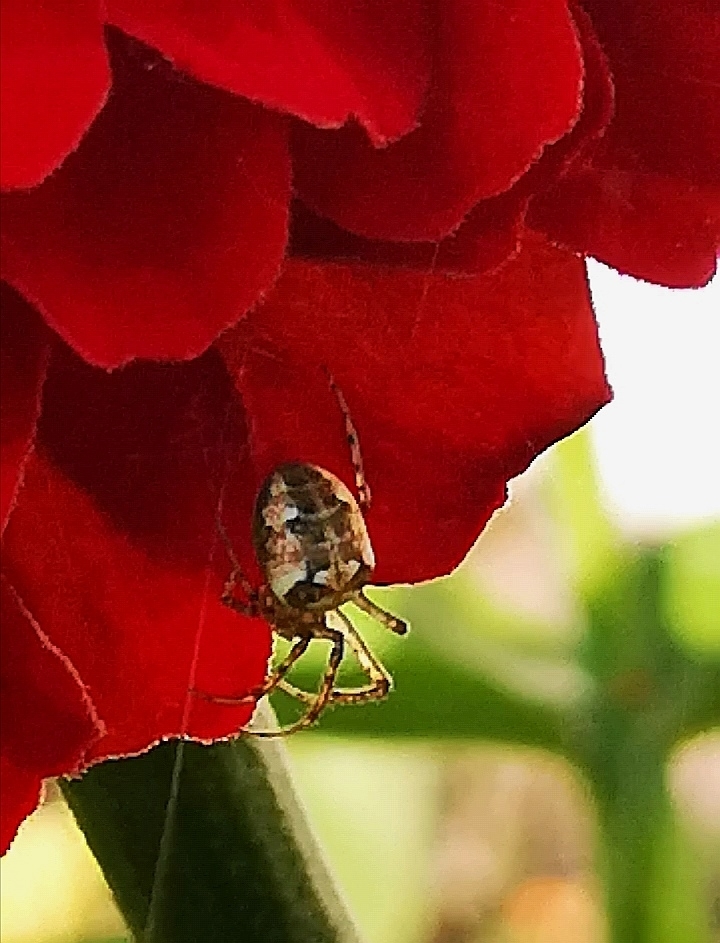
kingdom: Animalia
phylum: Arthropoda
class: Arachnida
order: Araneae
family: Tetragnathidae
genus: Metellina
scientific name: Metellina
